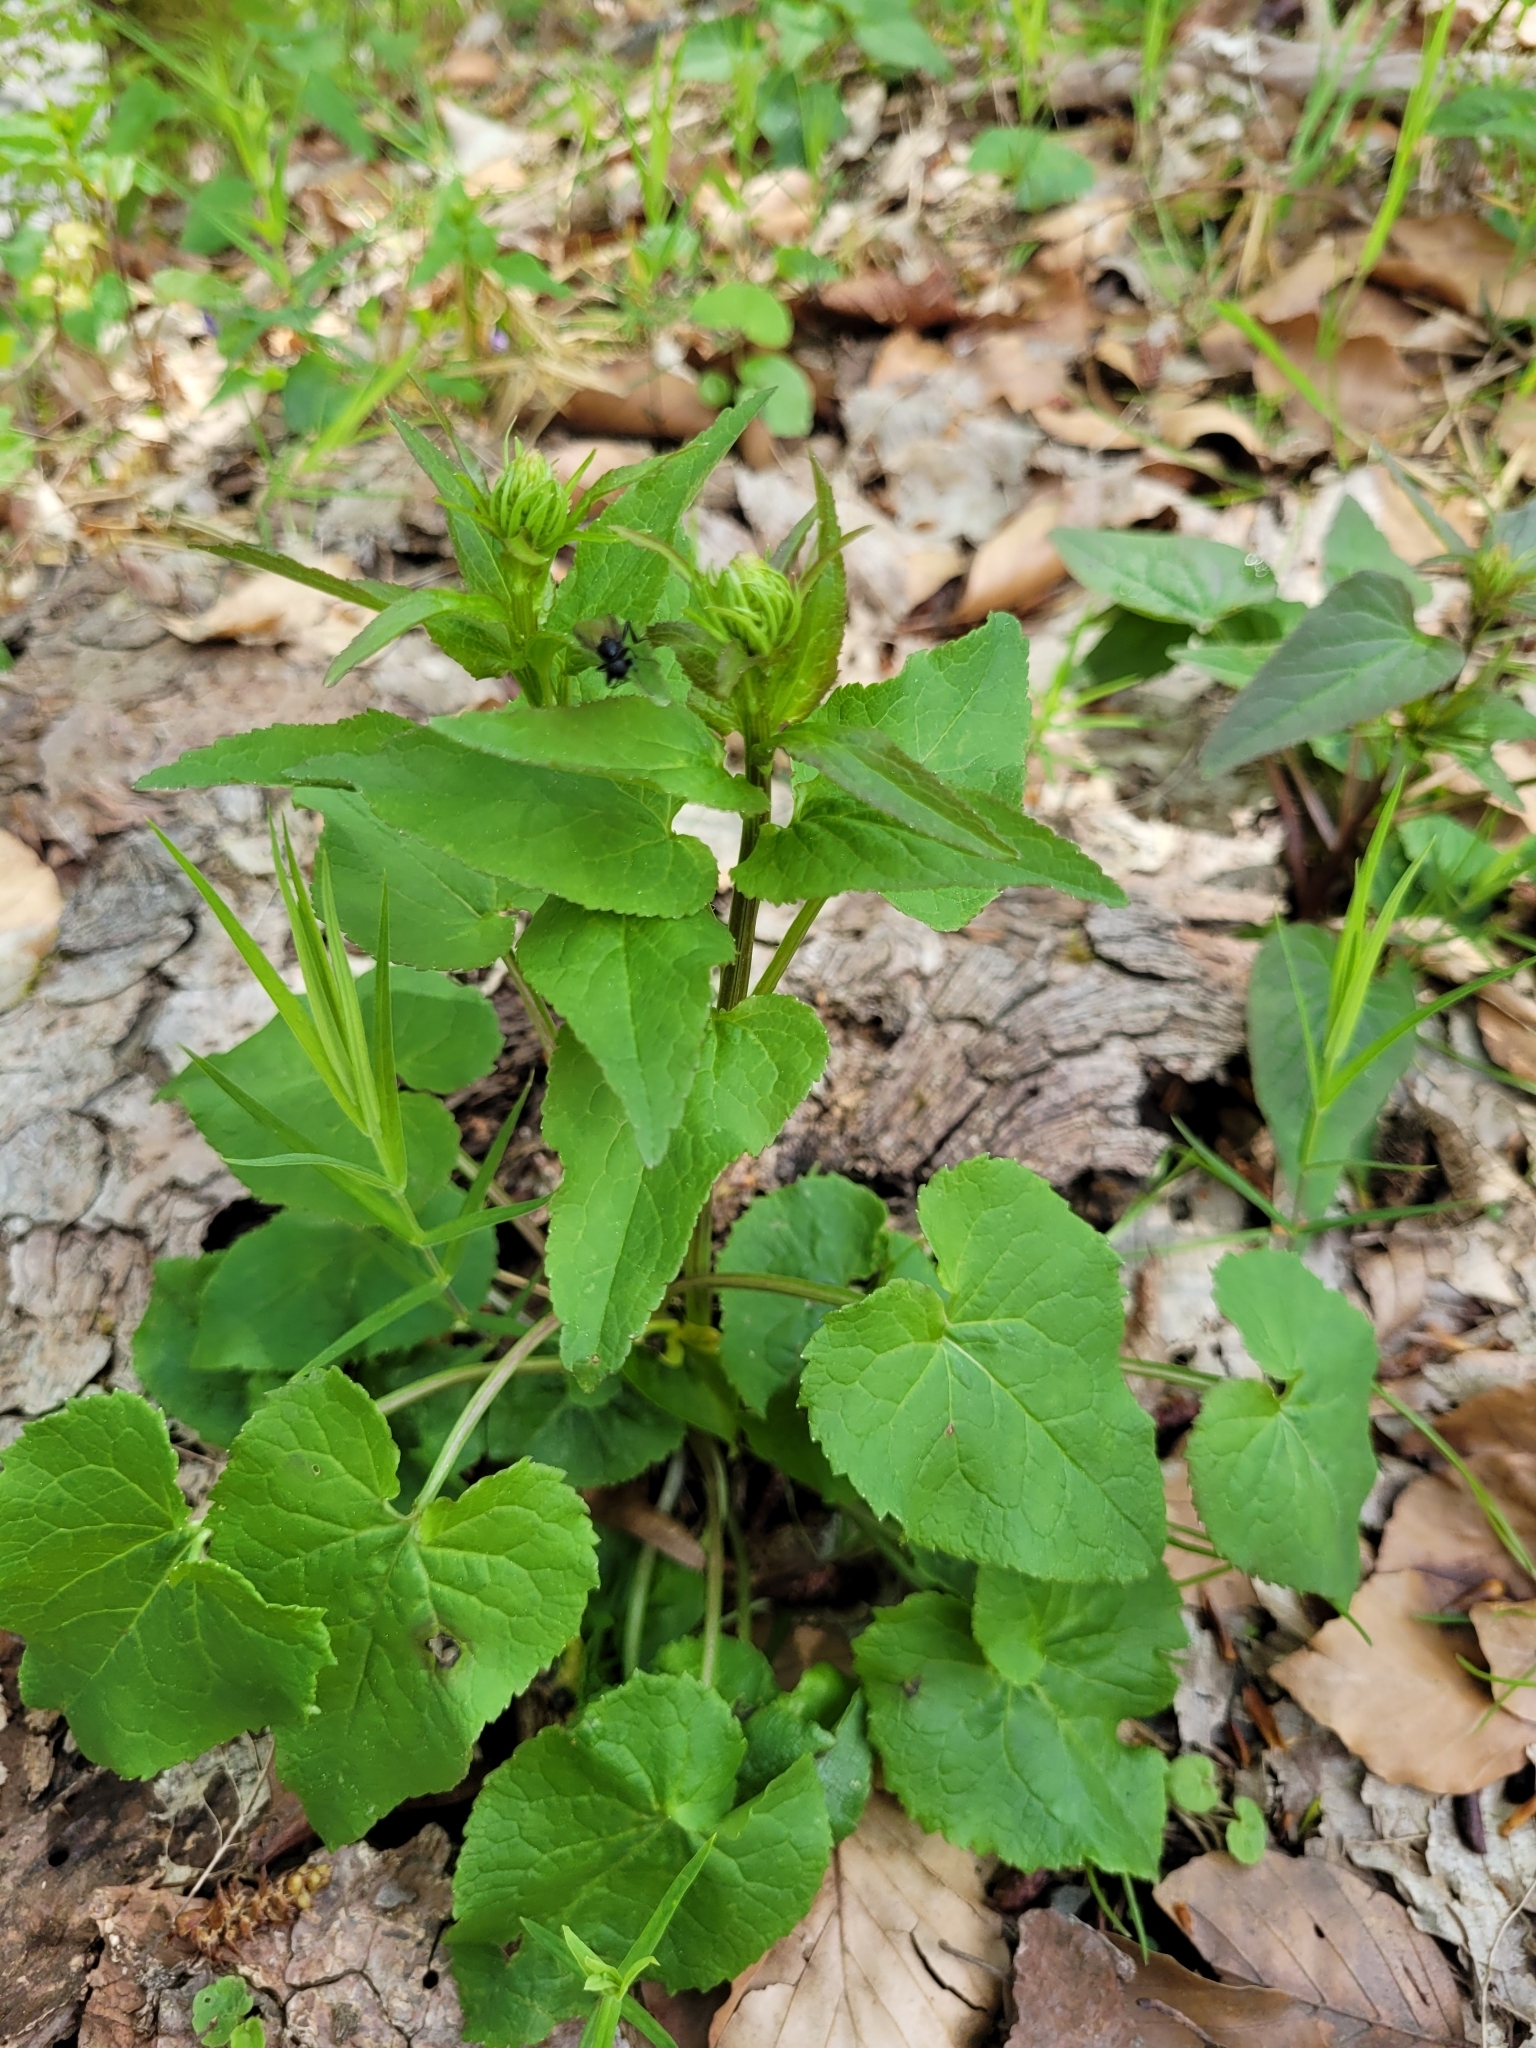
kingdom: Plantae
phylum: Tracheophyta
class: Magnoliopsida
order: Asterales
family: Campanulaceae
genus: Phyteuma
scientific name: Phyteuma spicatum
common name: Spiked rampion
